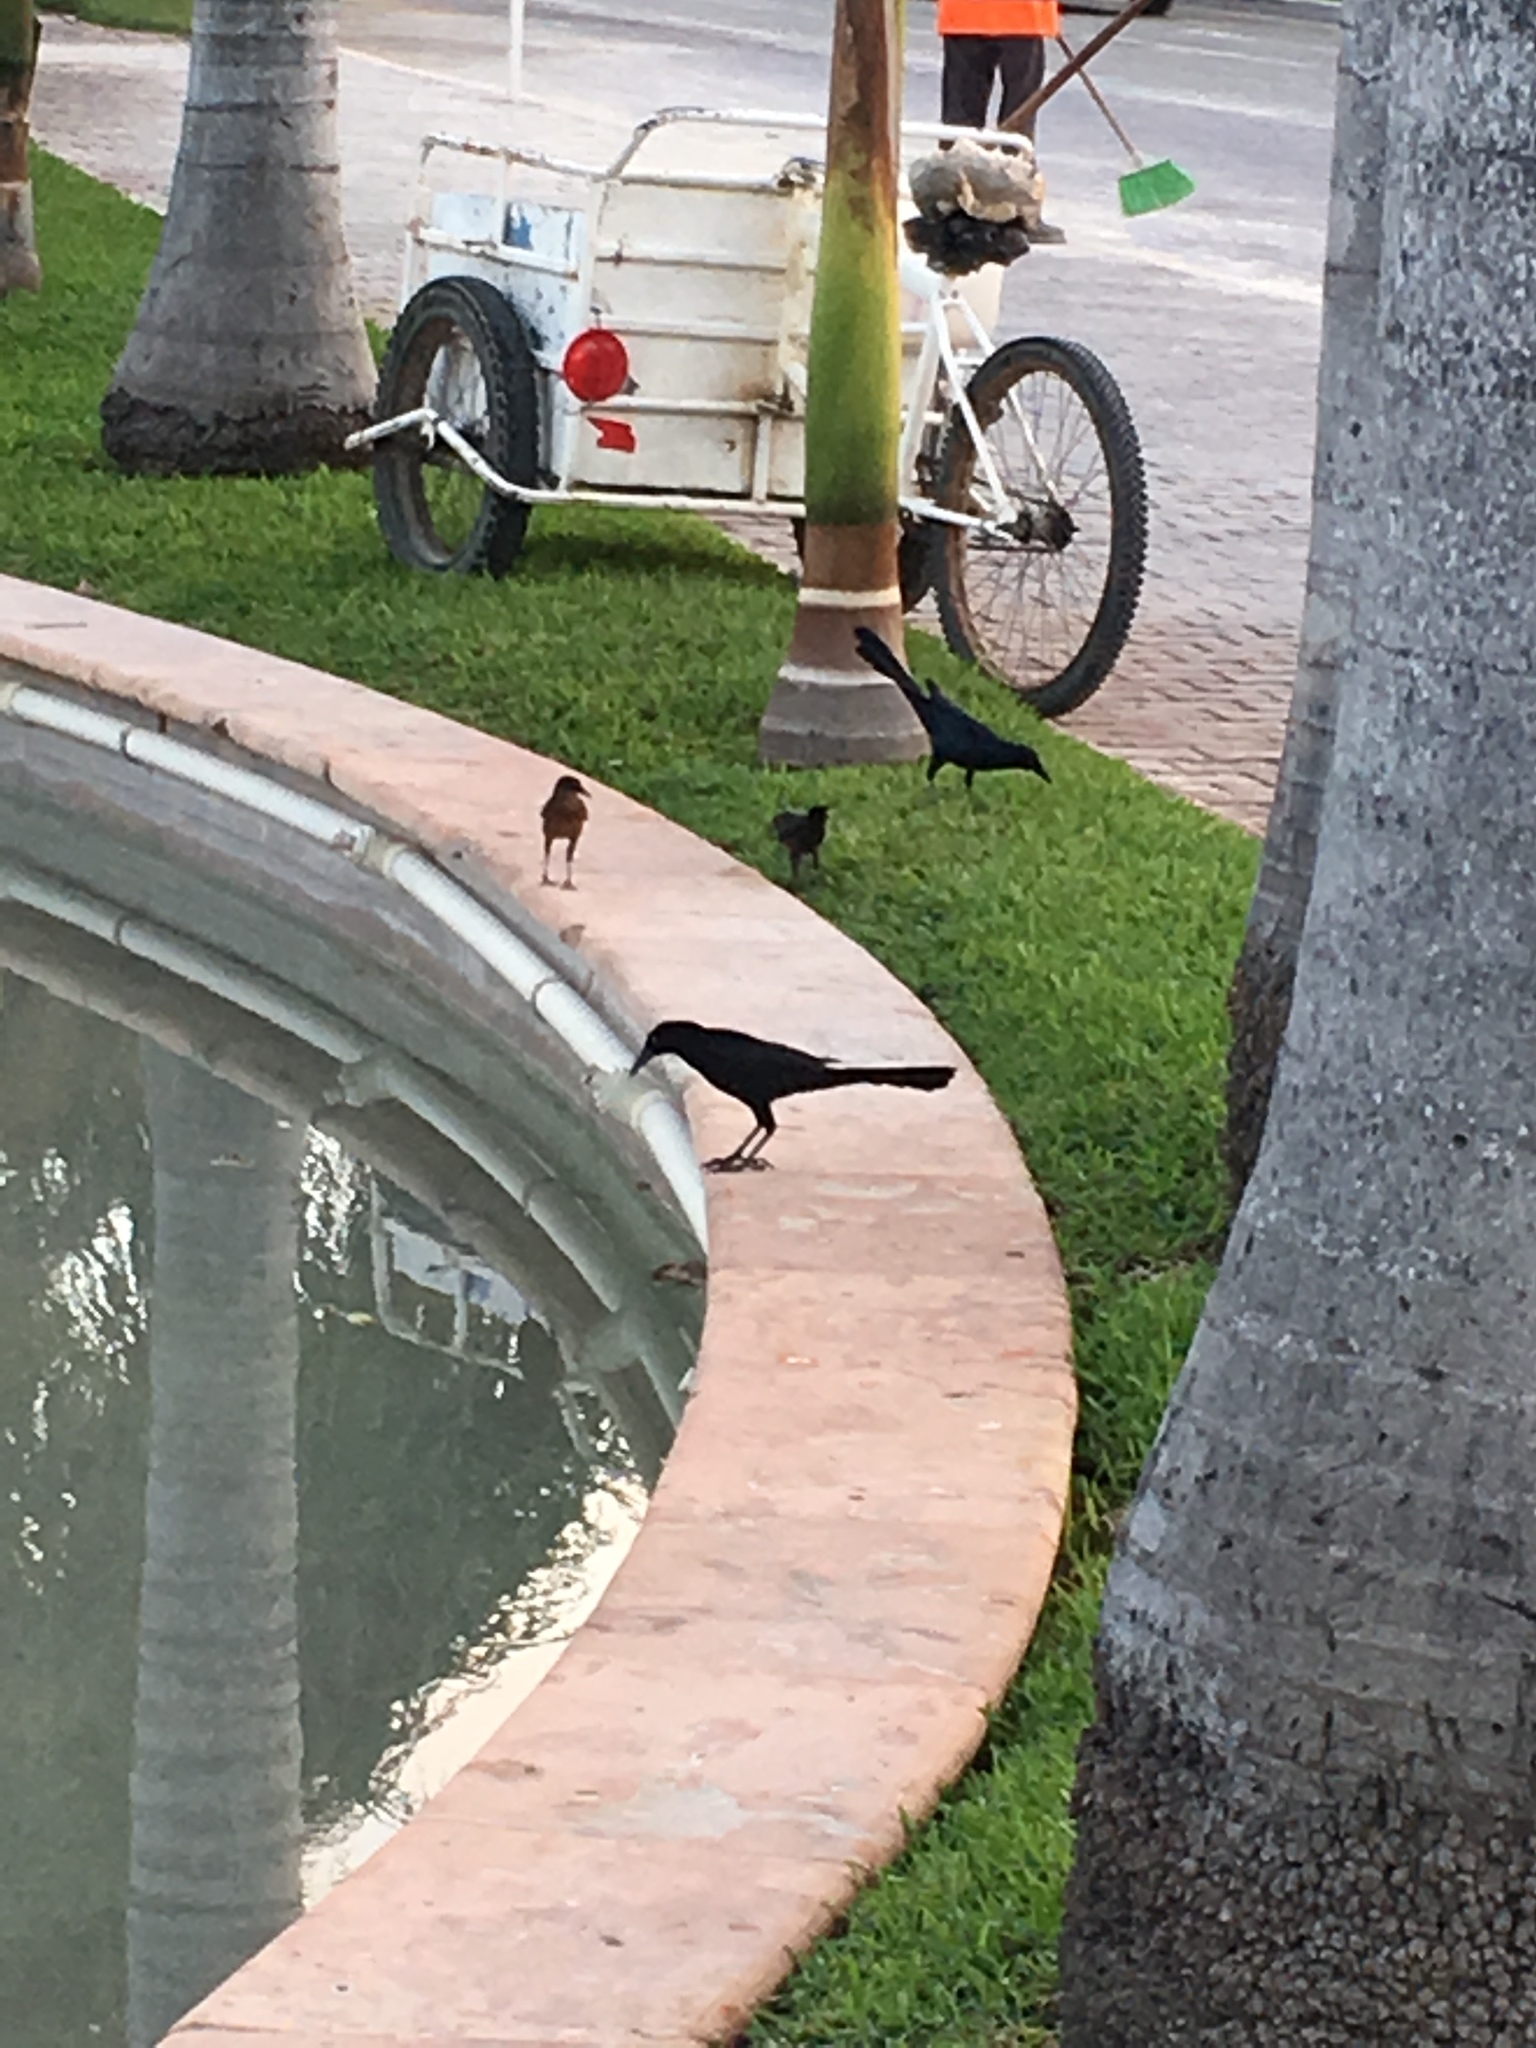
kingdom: Animalia
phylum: Chordata
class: Aves
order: Passeriformes
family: Icteridae
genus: Quiscalus
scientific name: Quiscalus mexicanus
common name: Great-tailed grackle
